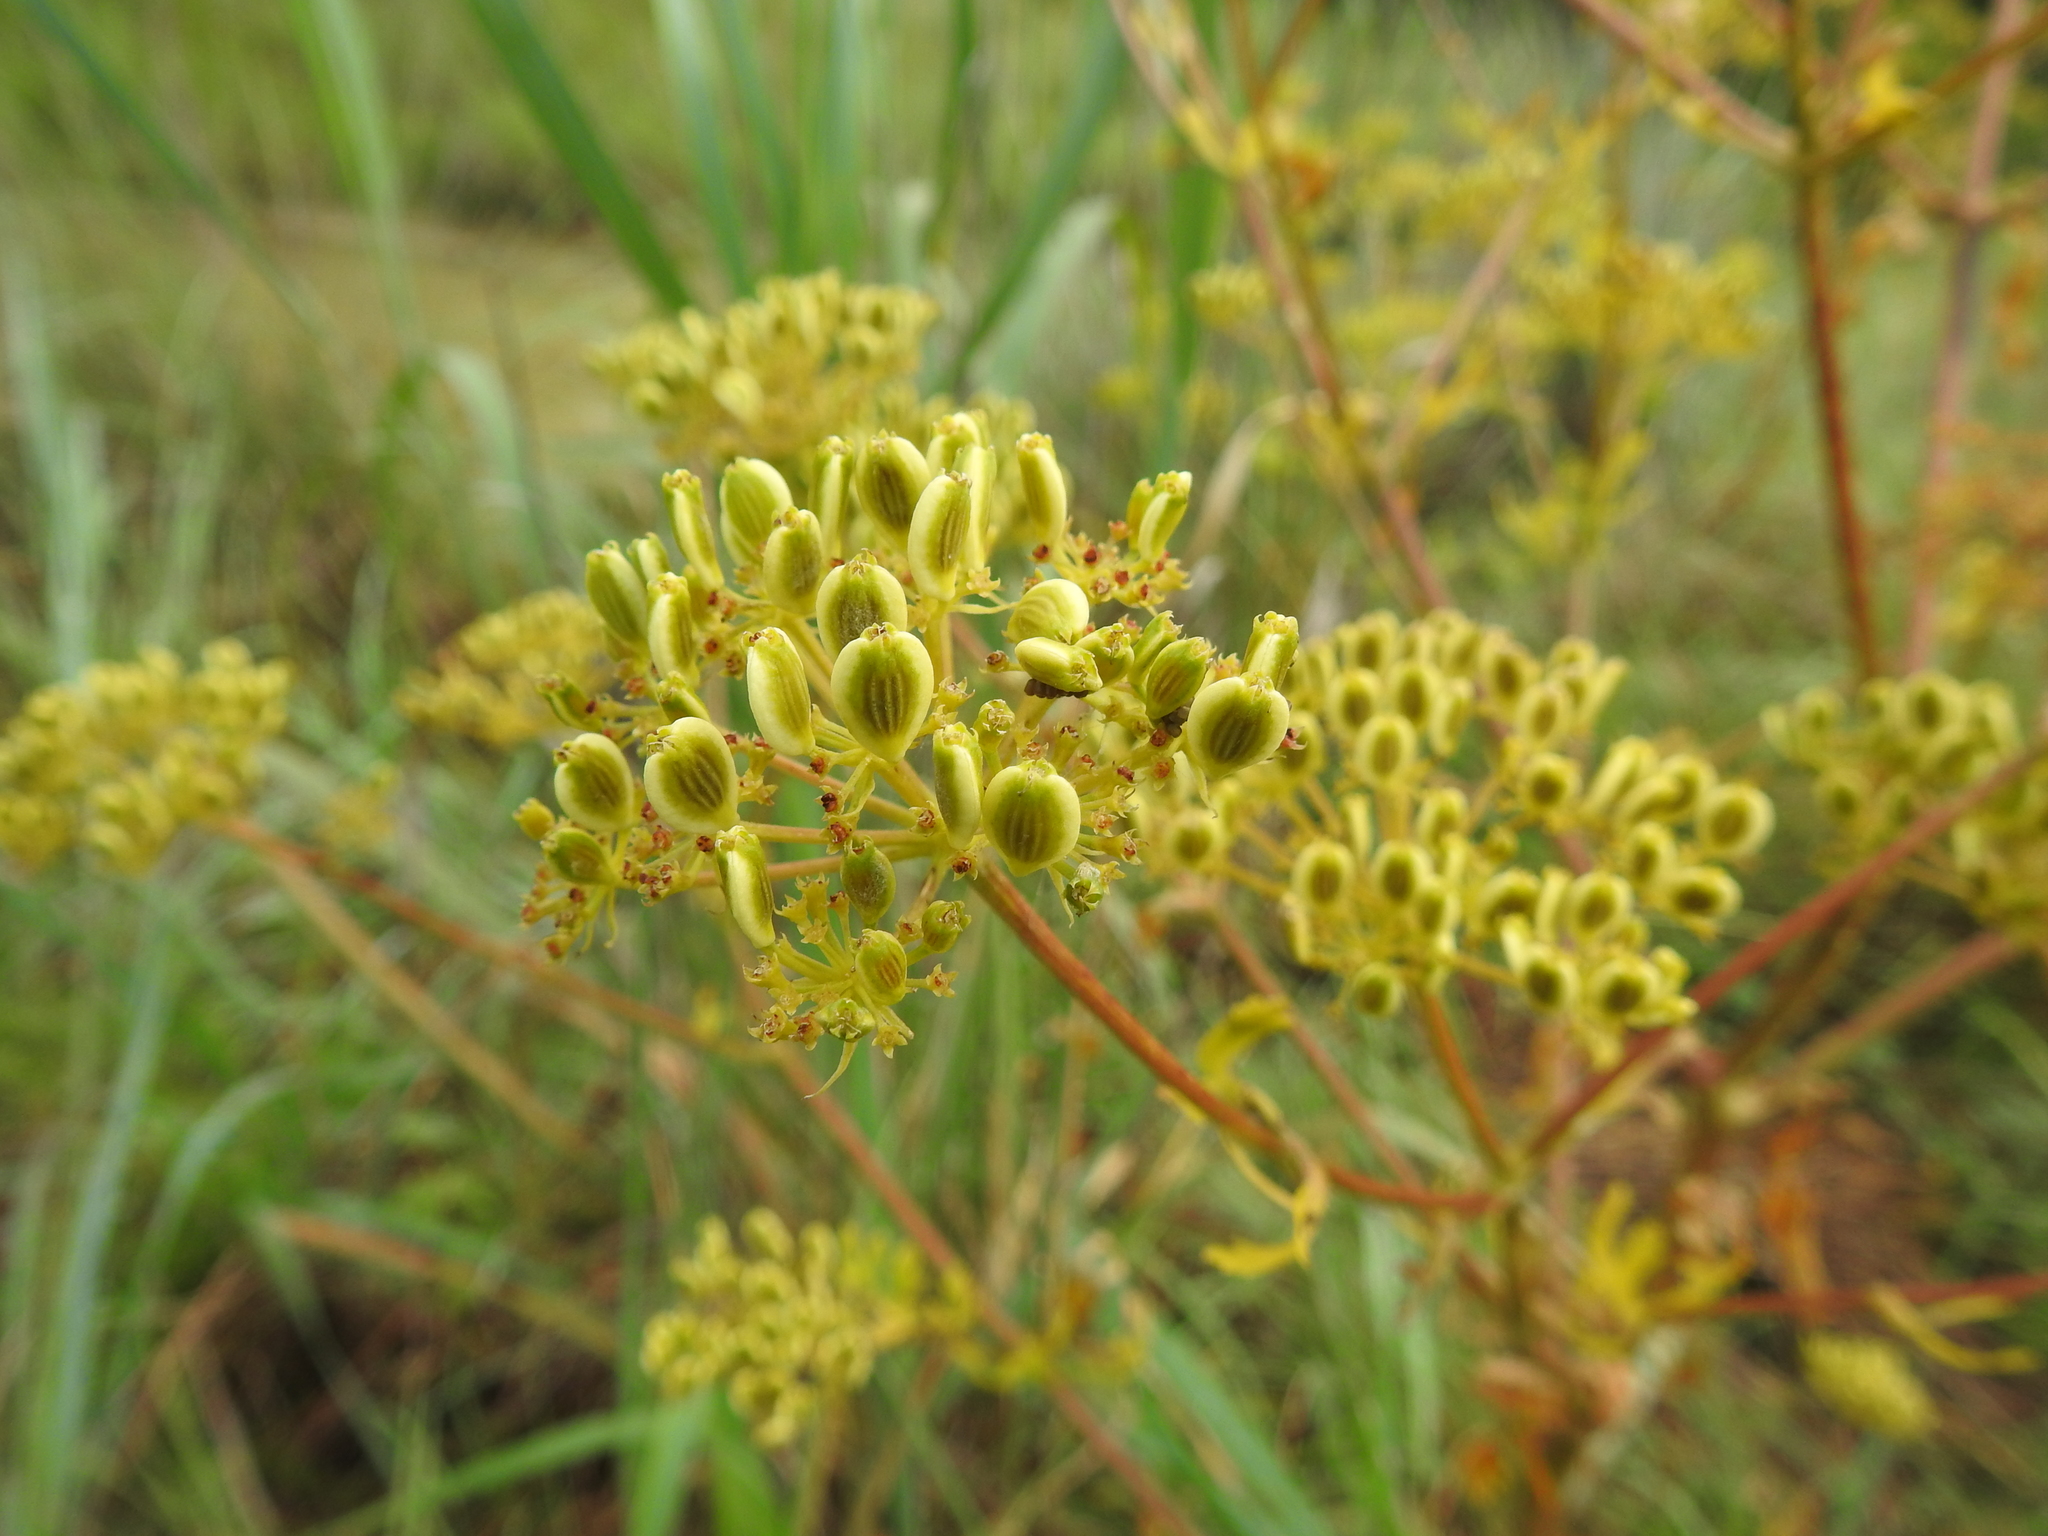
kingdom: Plantae
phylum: Tracheophyta
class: Magnoliopsida
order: Apiales
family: Apiaceae
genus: Polytaenia
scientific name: Polytaenia texana
